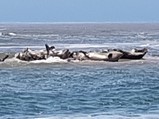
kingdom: Animalia
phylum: Chordata
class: Mammalia
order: Carnivora
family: Phocidae
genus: Phoca
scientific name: Phoca vitulina
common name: Harbor seal
